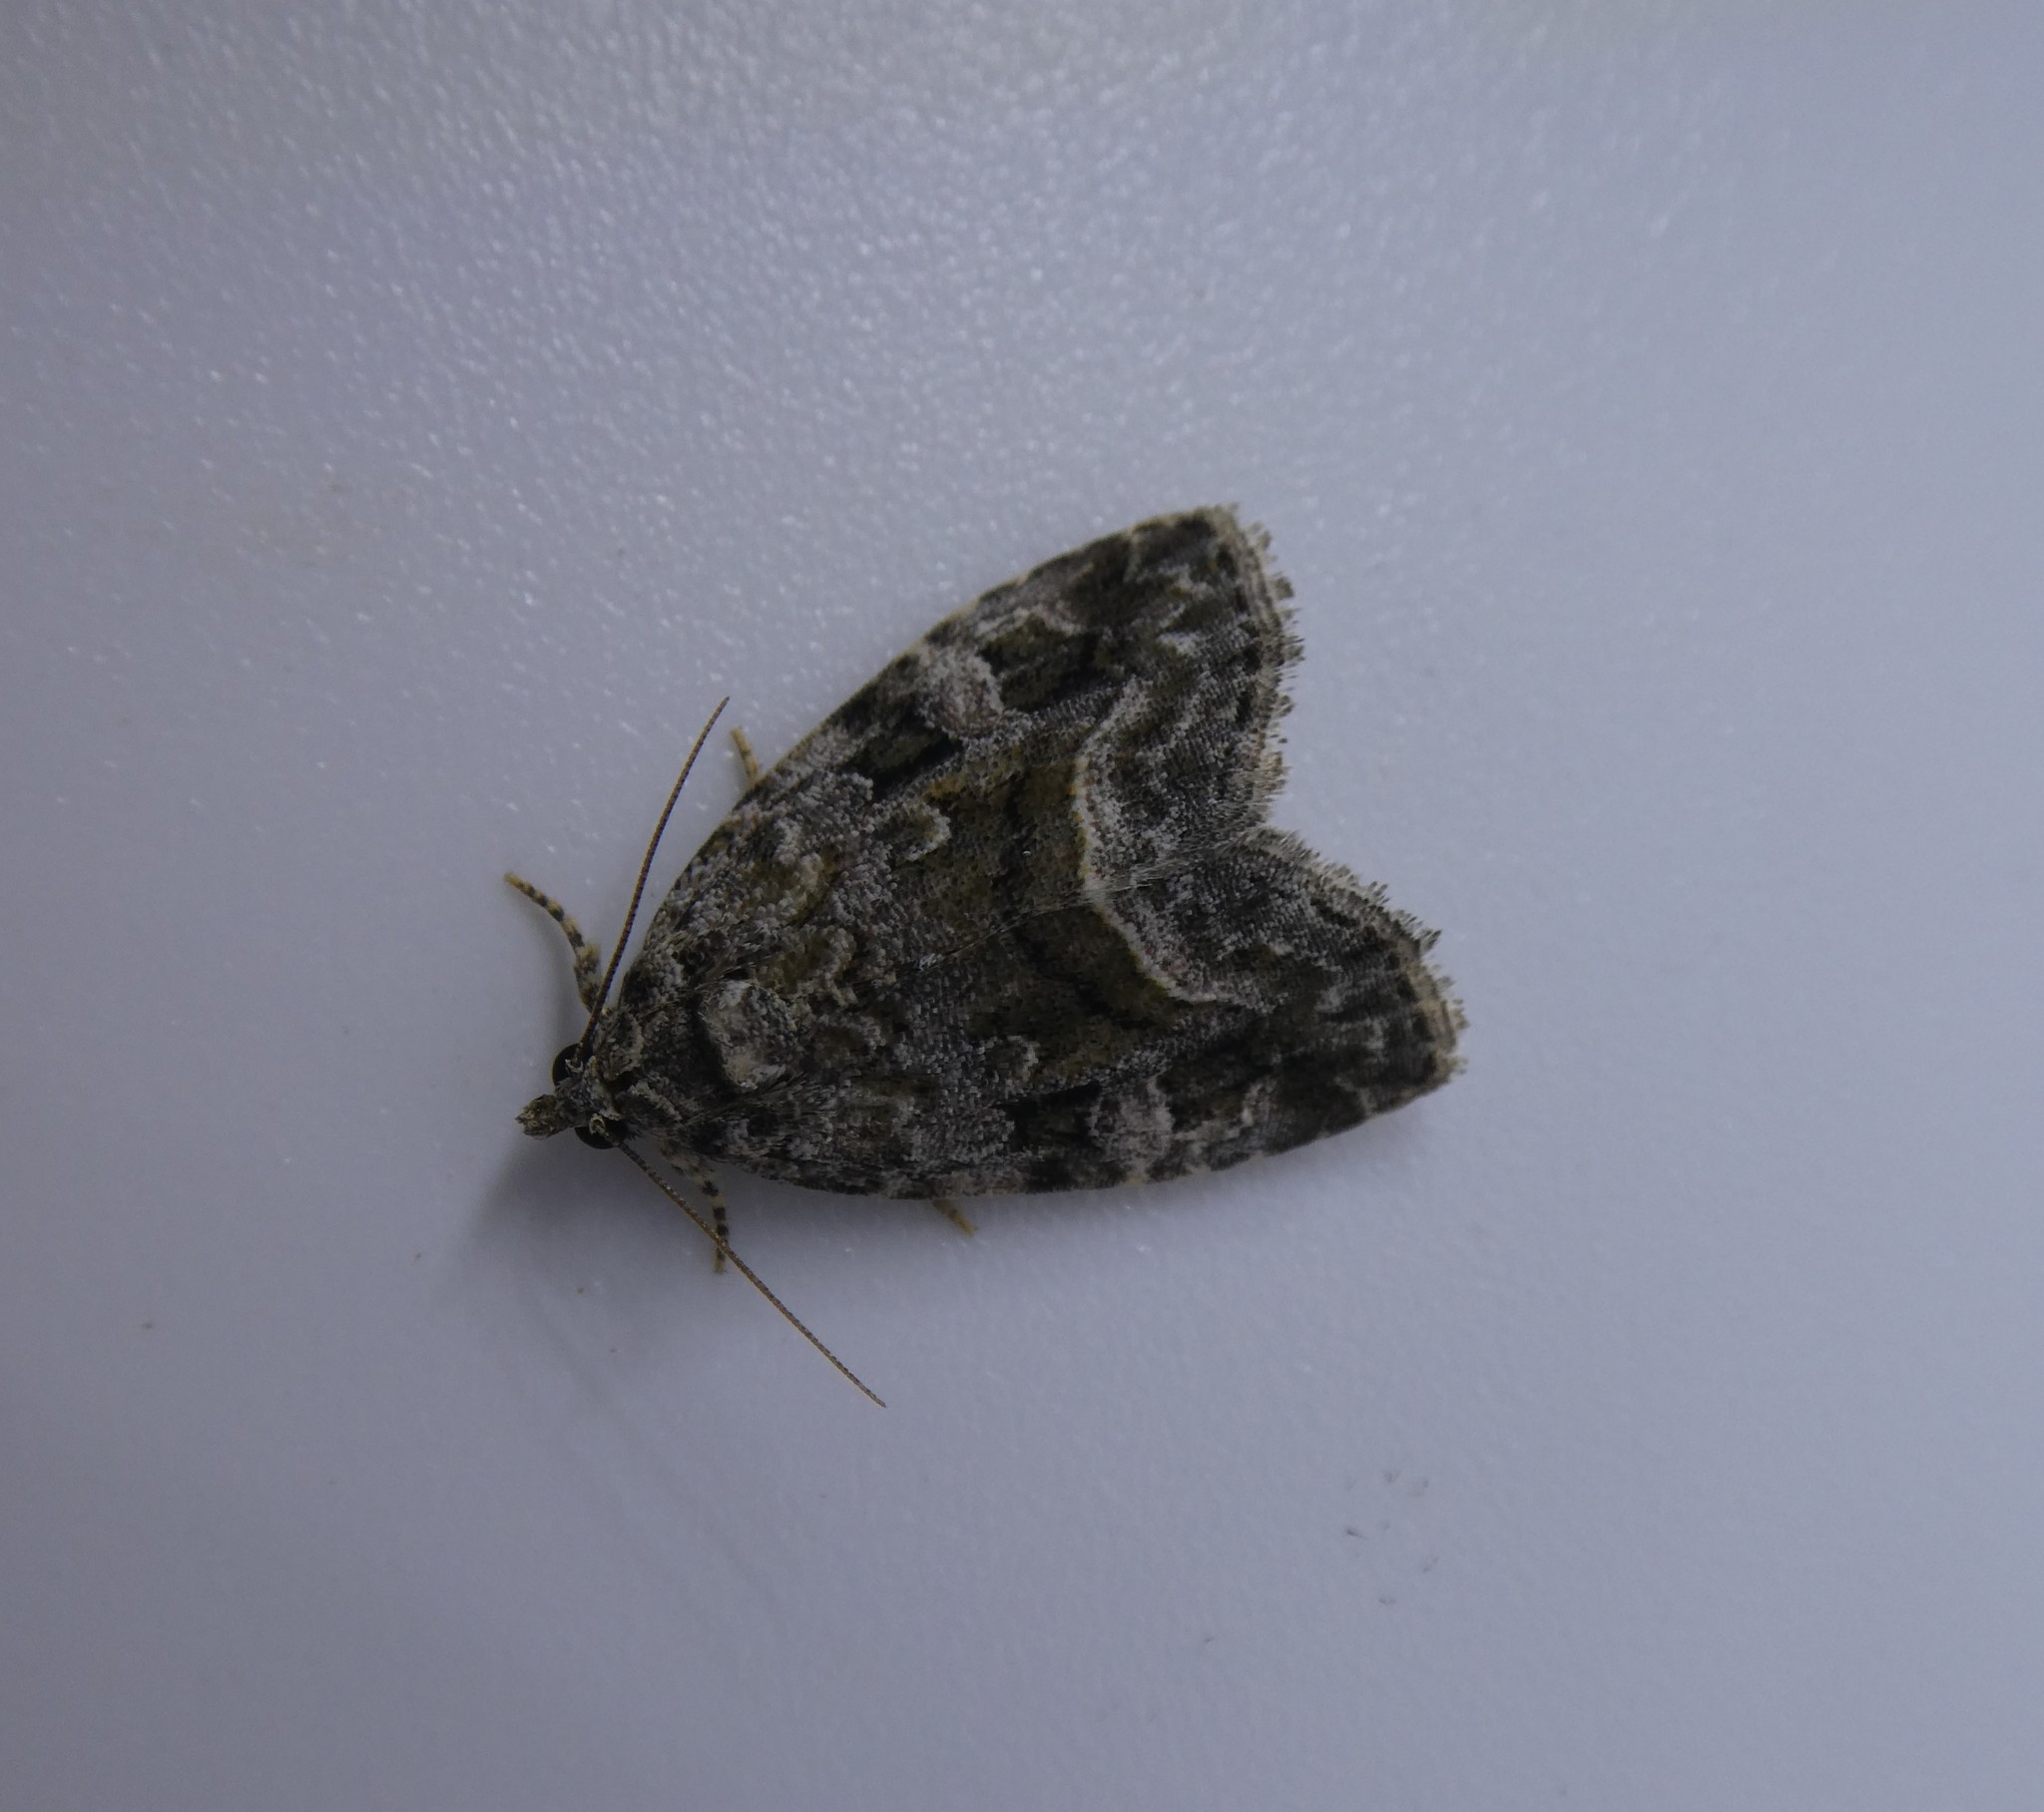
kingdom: Animalia
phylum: Arthropoda
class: Insecta
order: Lepidoptera
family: Noctuidae
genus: Protodeltote
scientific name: Protodeltote muscosula
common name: Large mossy glyph
